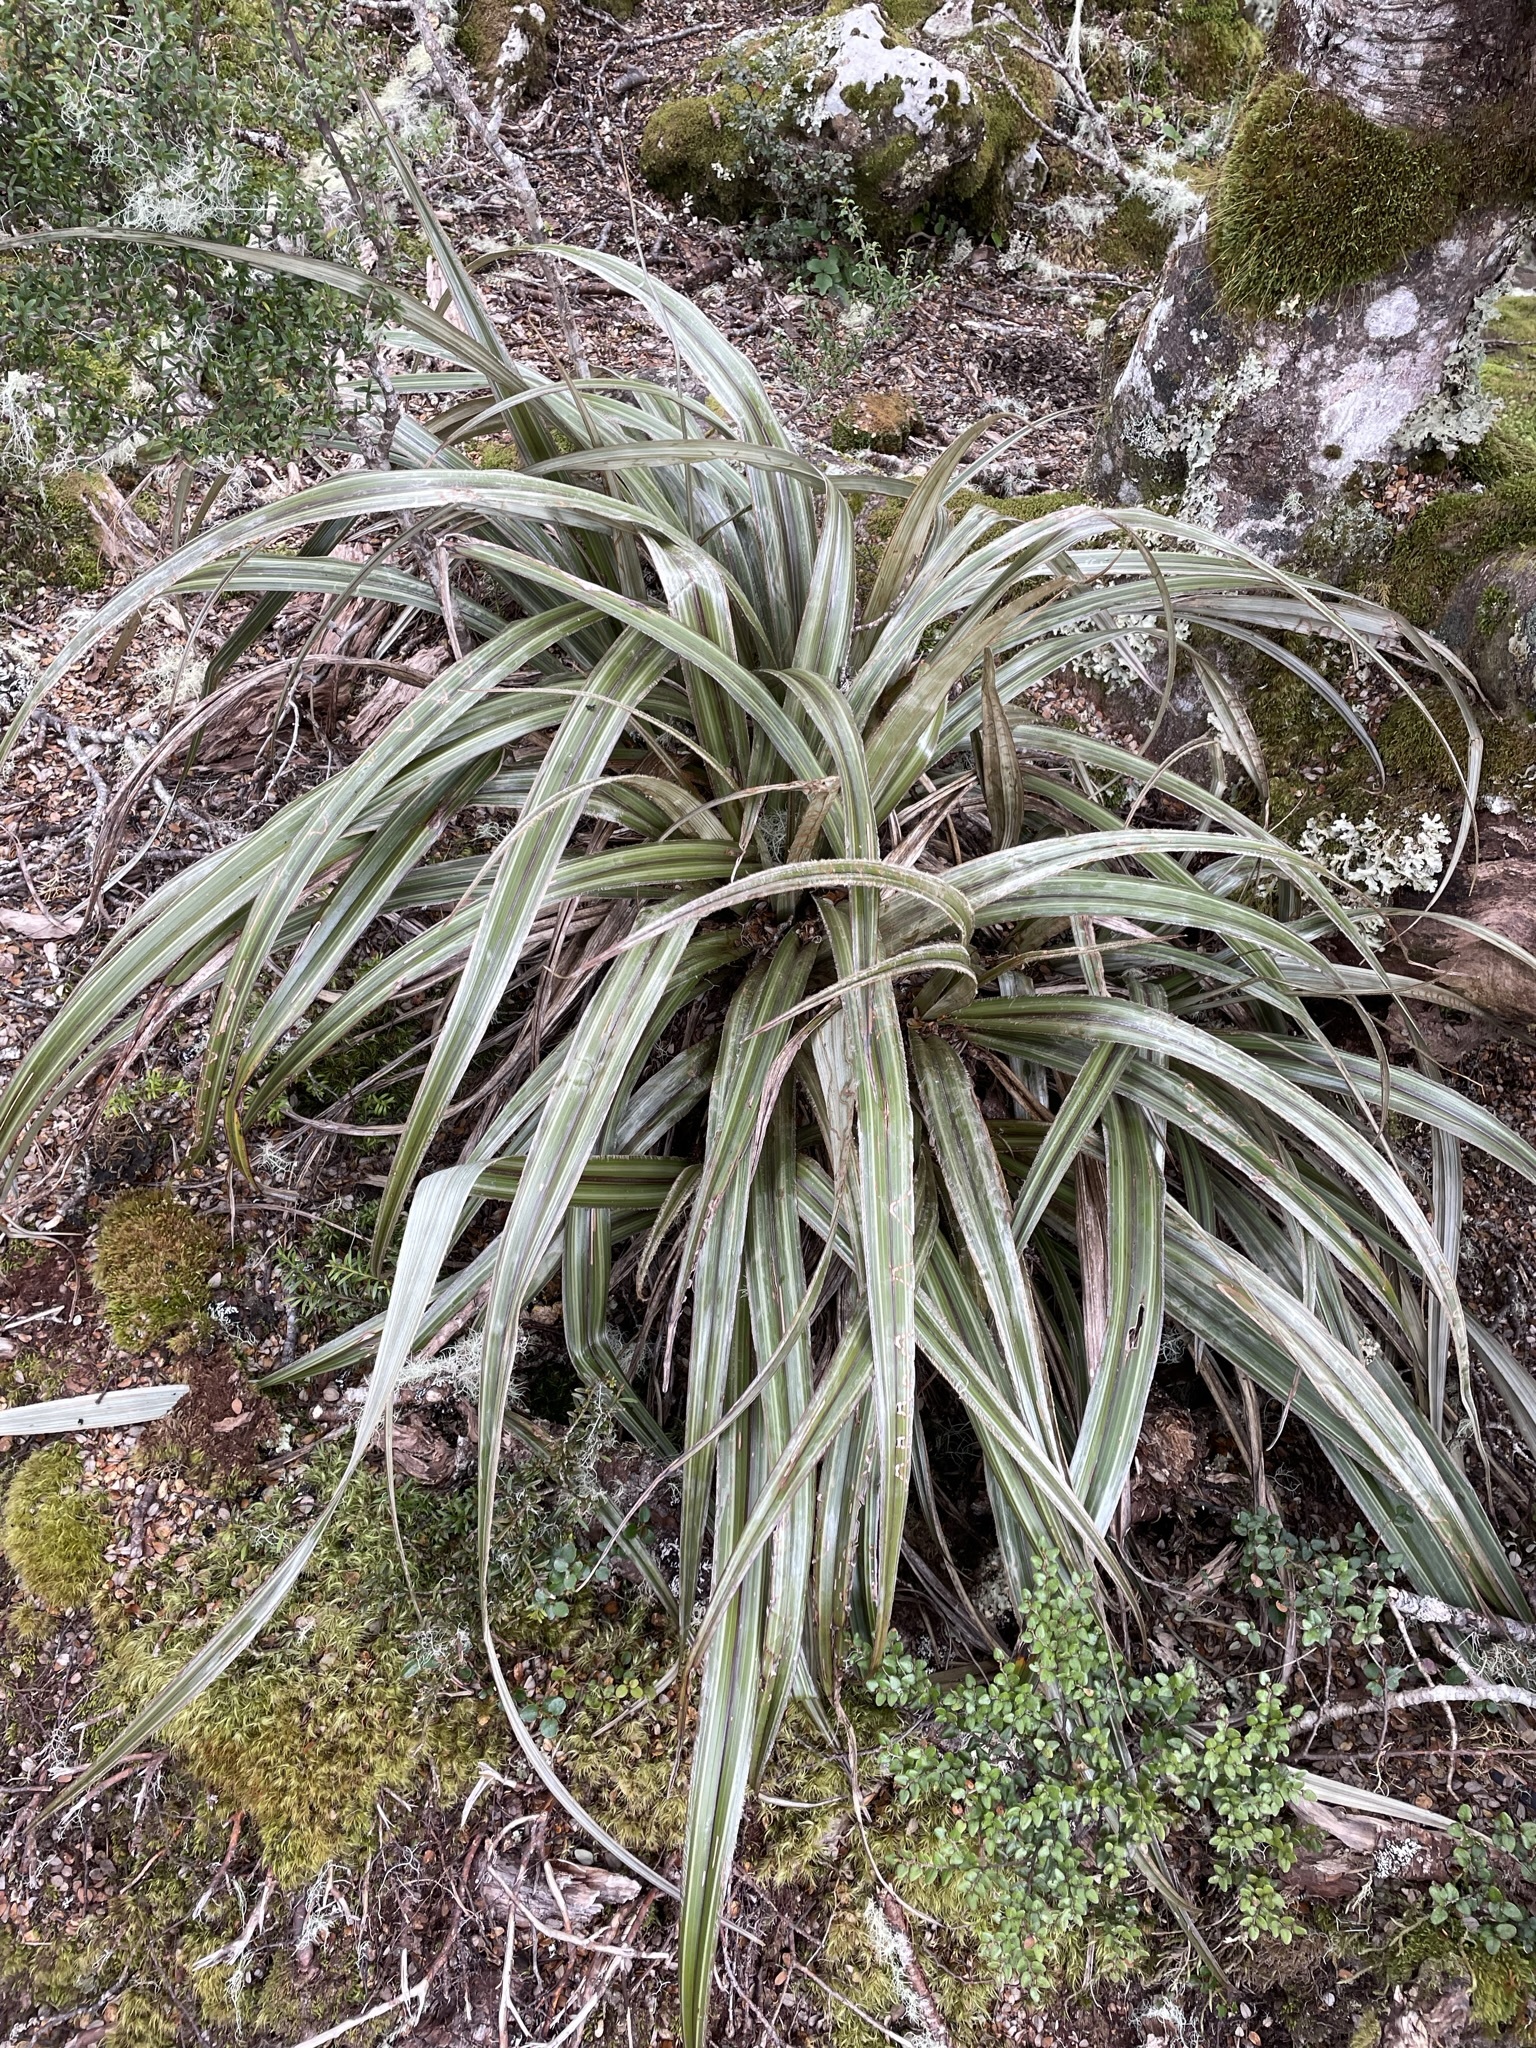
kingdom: Plantae
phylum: Tracheophyta
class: Liliopsida
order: Asparagales
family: Asteliaceae
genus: Astelia
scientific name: Astelia nervosa
